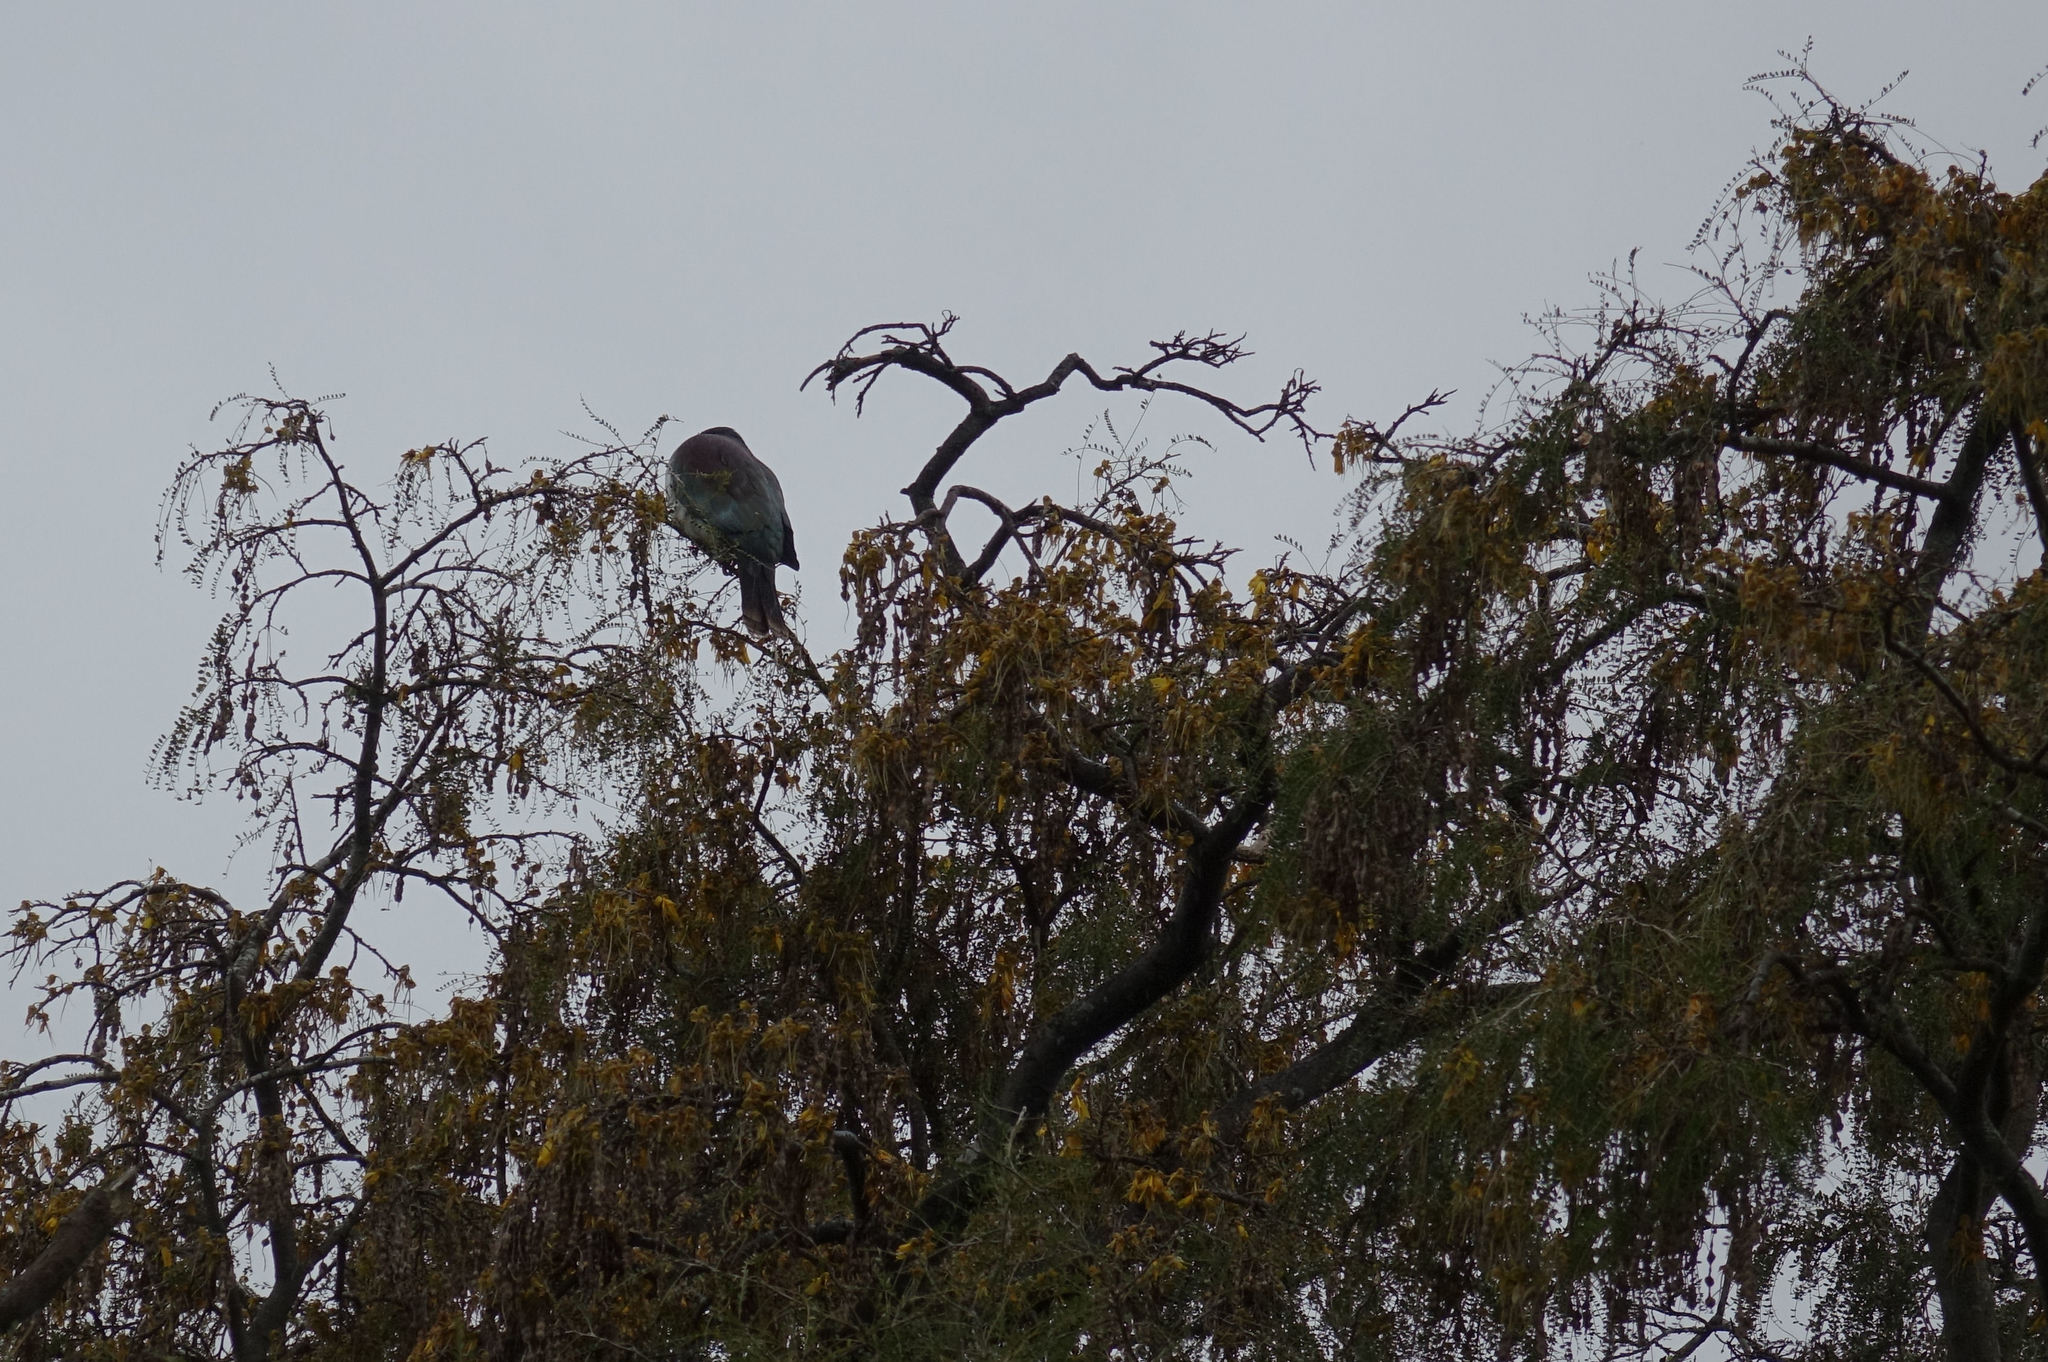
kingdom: Animalia
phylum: Chordata
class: Aves
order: Columbiformes
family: Columbidae
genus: Hemiphaga
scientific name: Hemiphaga novaeseelandiae
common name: New zealand pigeon
